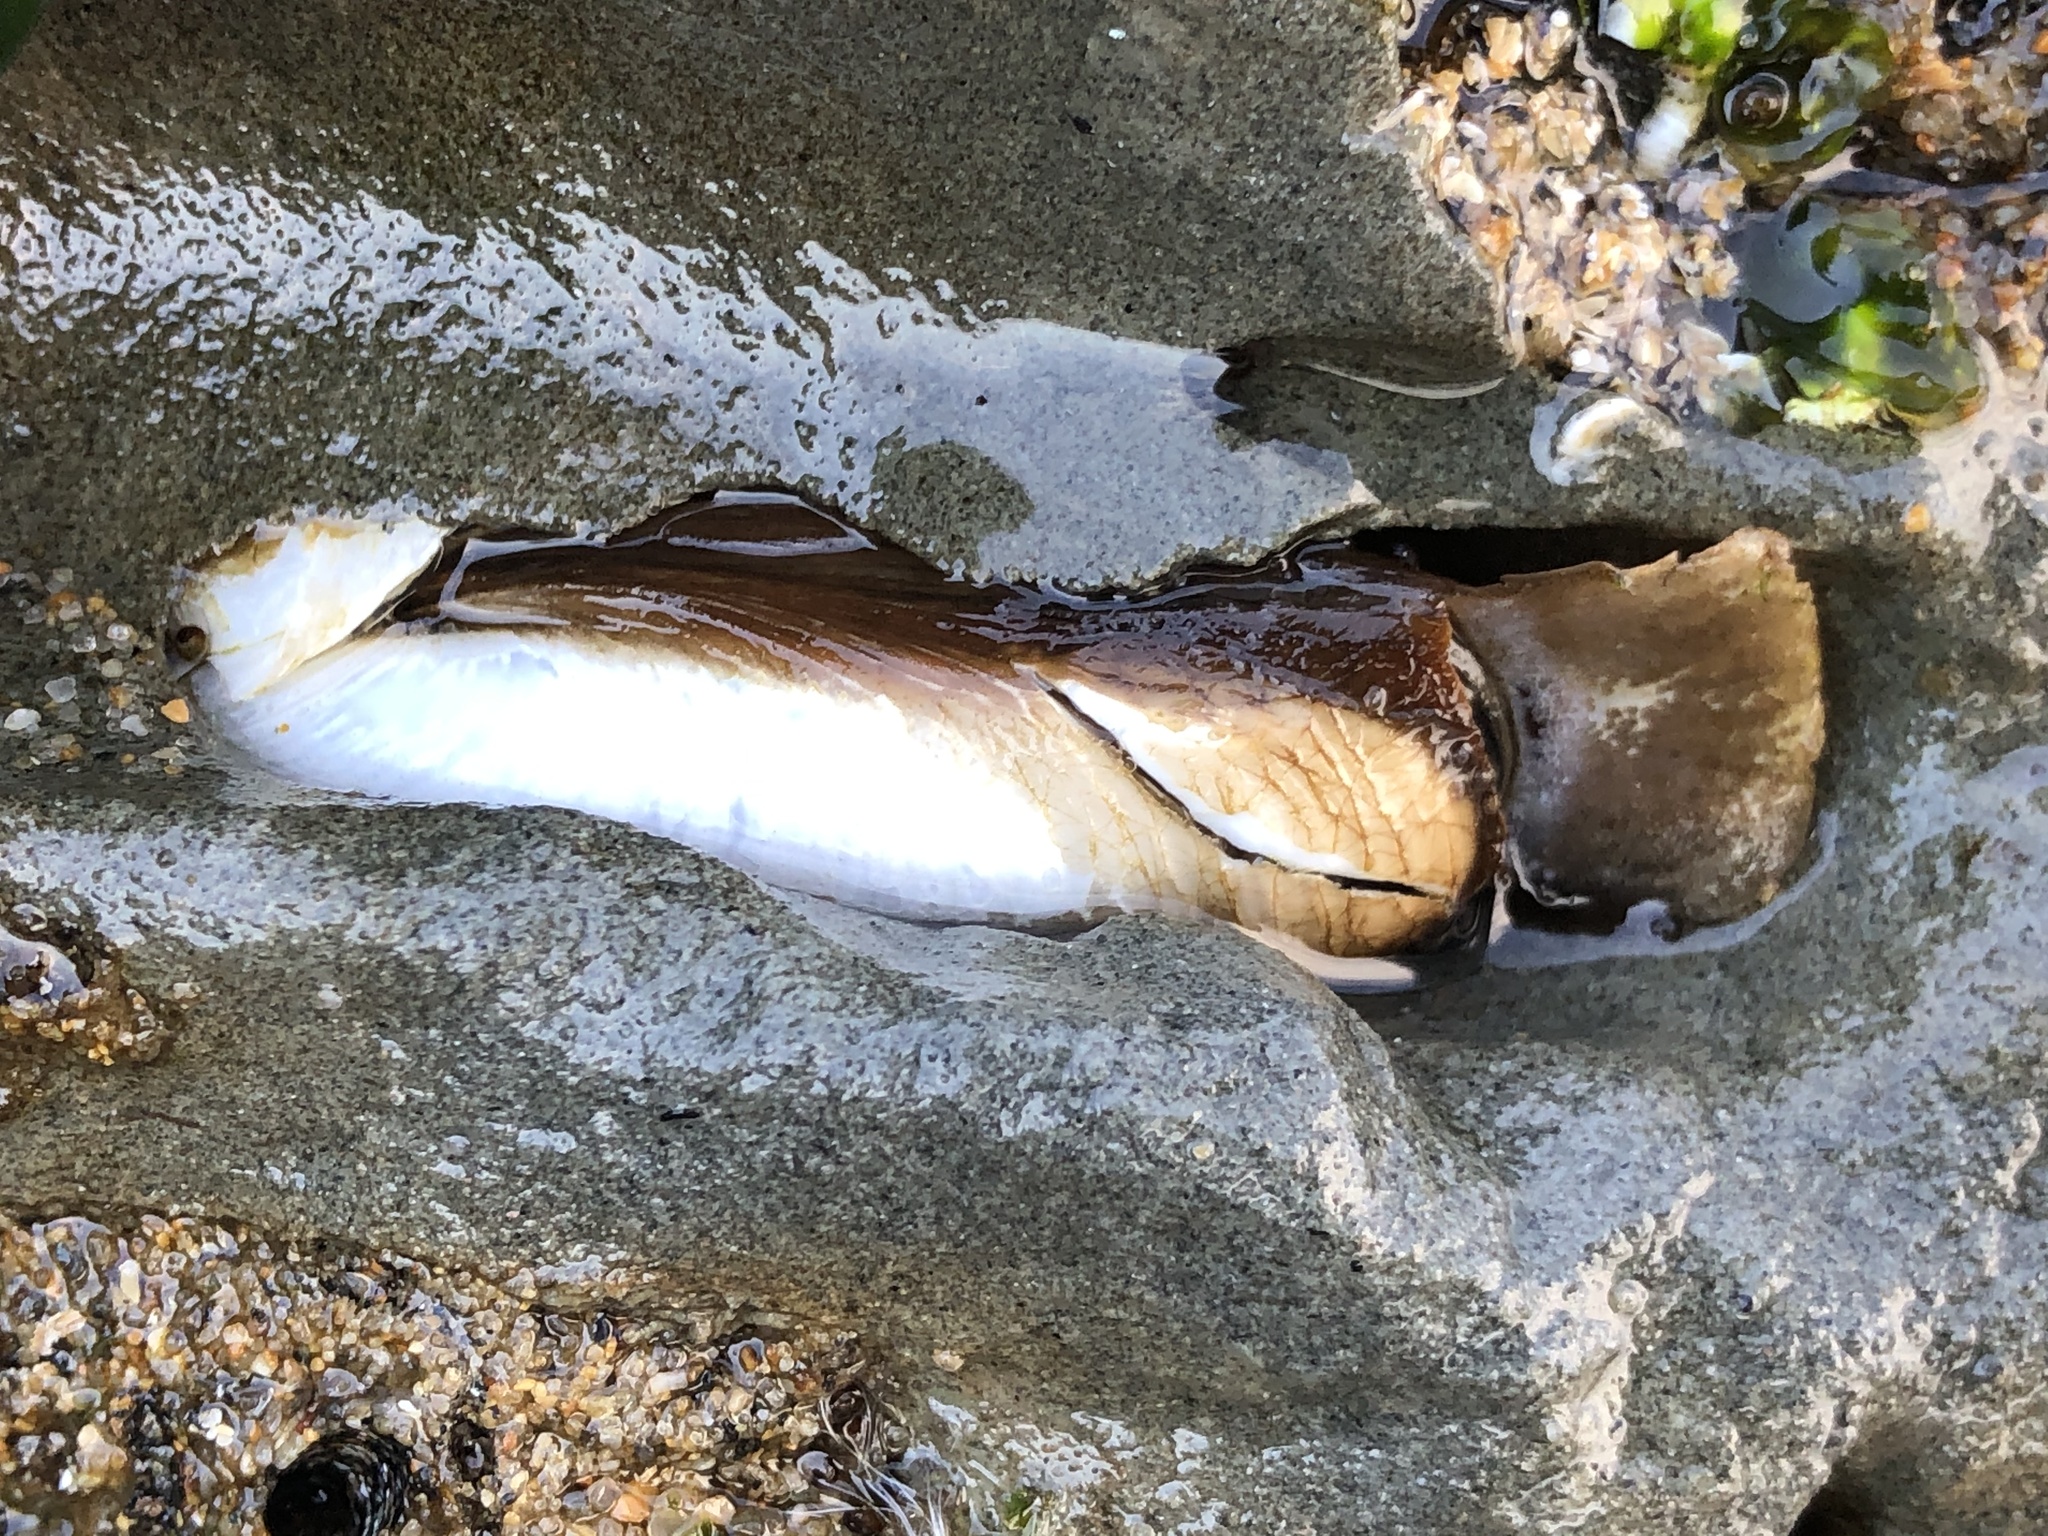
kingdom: Animalia
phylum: Mollusca
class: Bivalvia
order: Myida
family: Pholadidae
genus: Parapholas
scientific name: Parapholas californica
